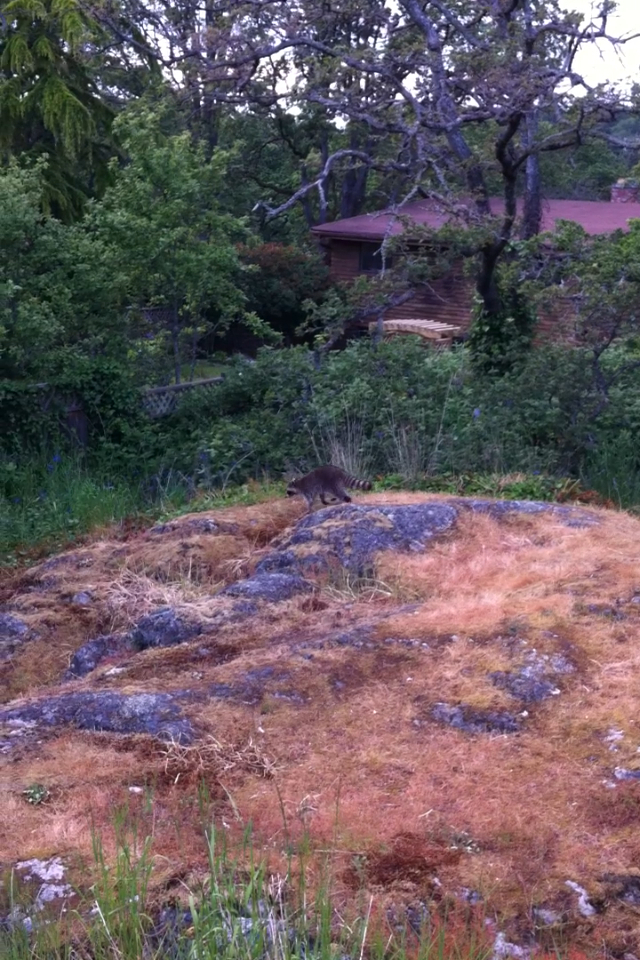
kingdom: Animalia
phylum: Chordata
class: Mammalia
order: Carnivora
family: Procyonidae
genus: Procyon
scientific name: Procyon lotor
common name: Raccoon
